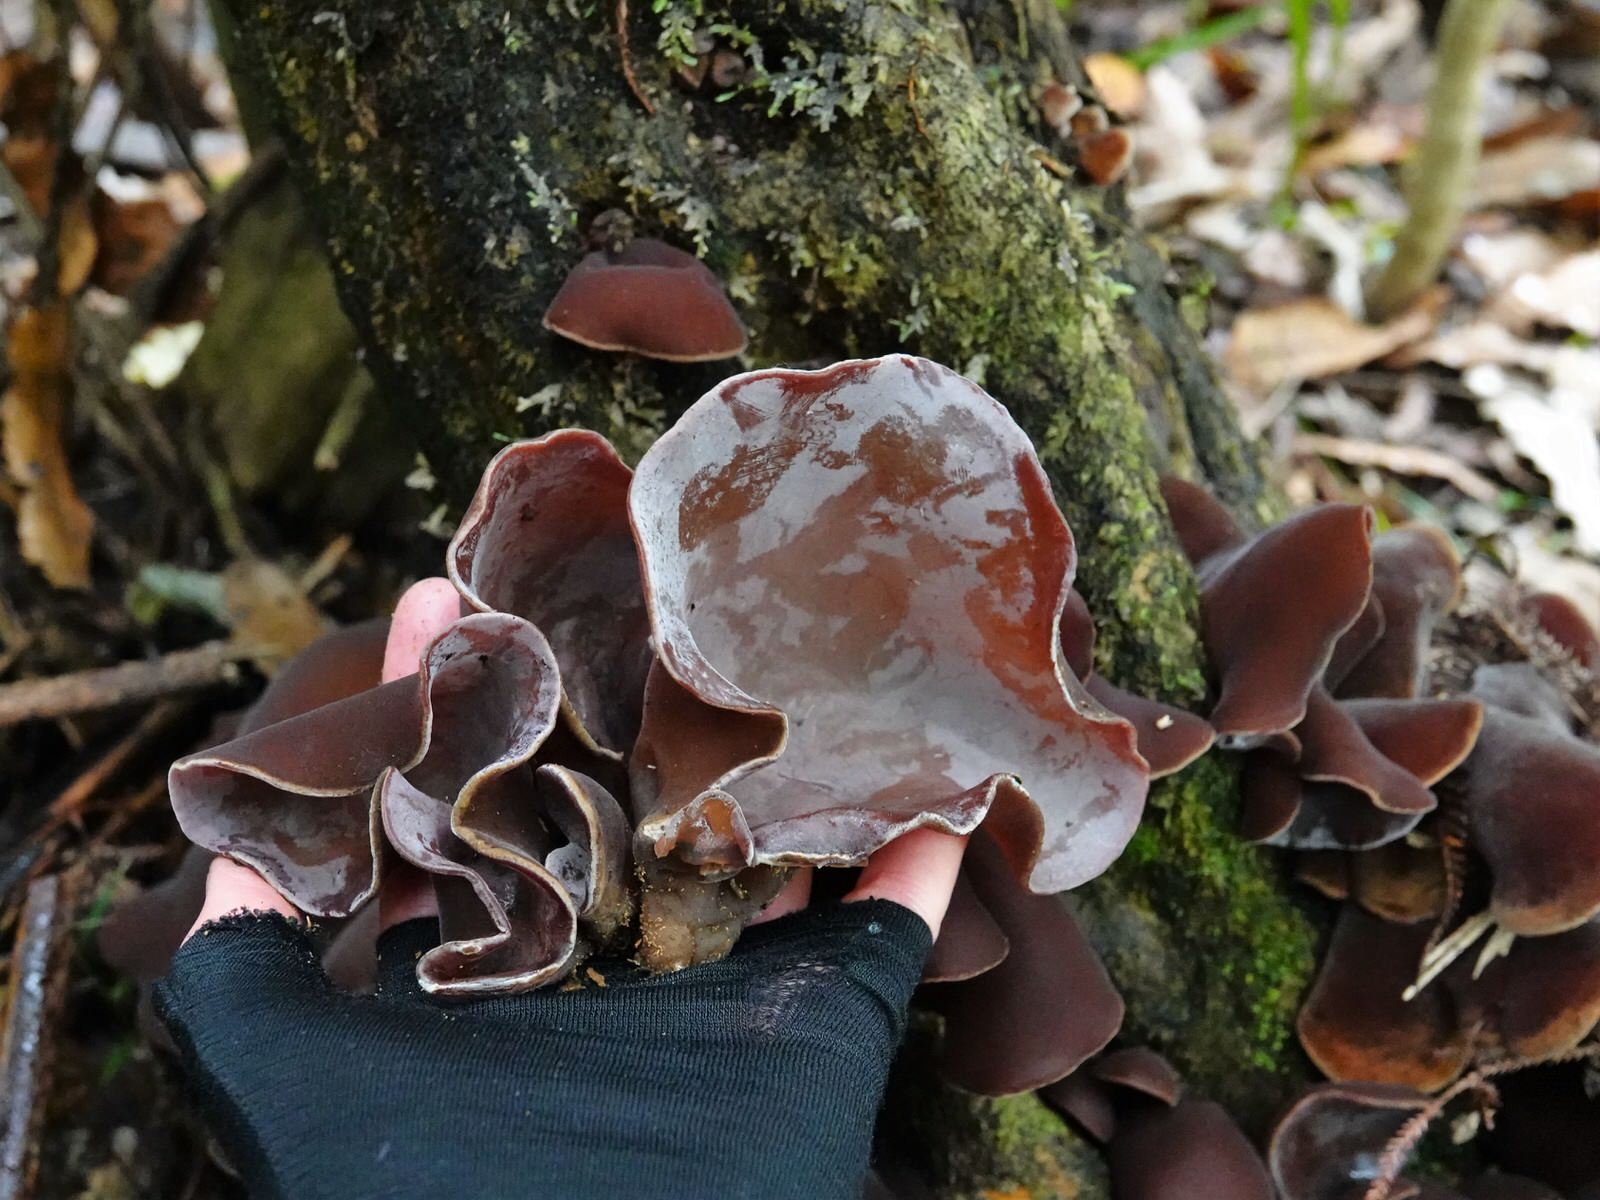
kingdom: Fungi
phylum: Basidiomycota
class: Agaricomycetes
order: Auriculariales
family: Auriculariaceae
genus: Auricularia
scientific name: Auricularia cornea
